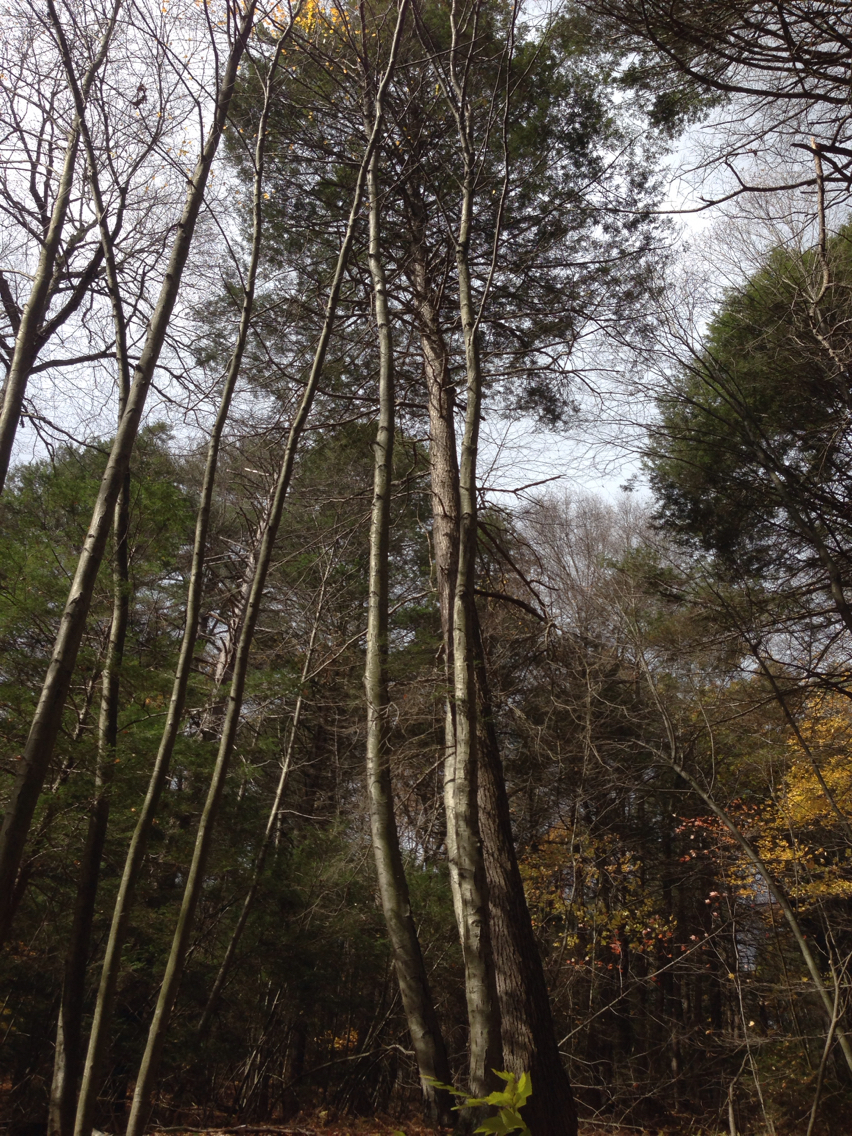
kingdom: Plantae
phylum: Tracheophyta
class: Pinopsida
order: Pinales
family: Pinaceae
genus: Tsuga
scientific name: Tsuga canadensis
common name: Eastern hemlock
